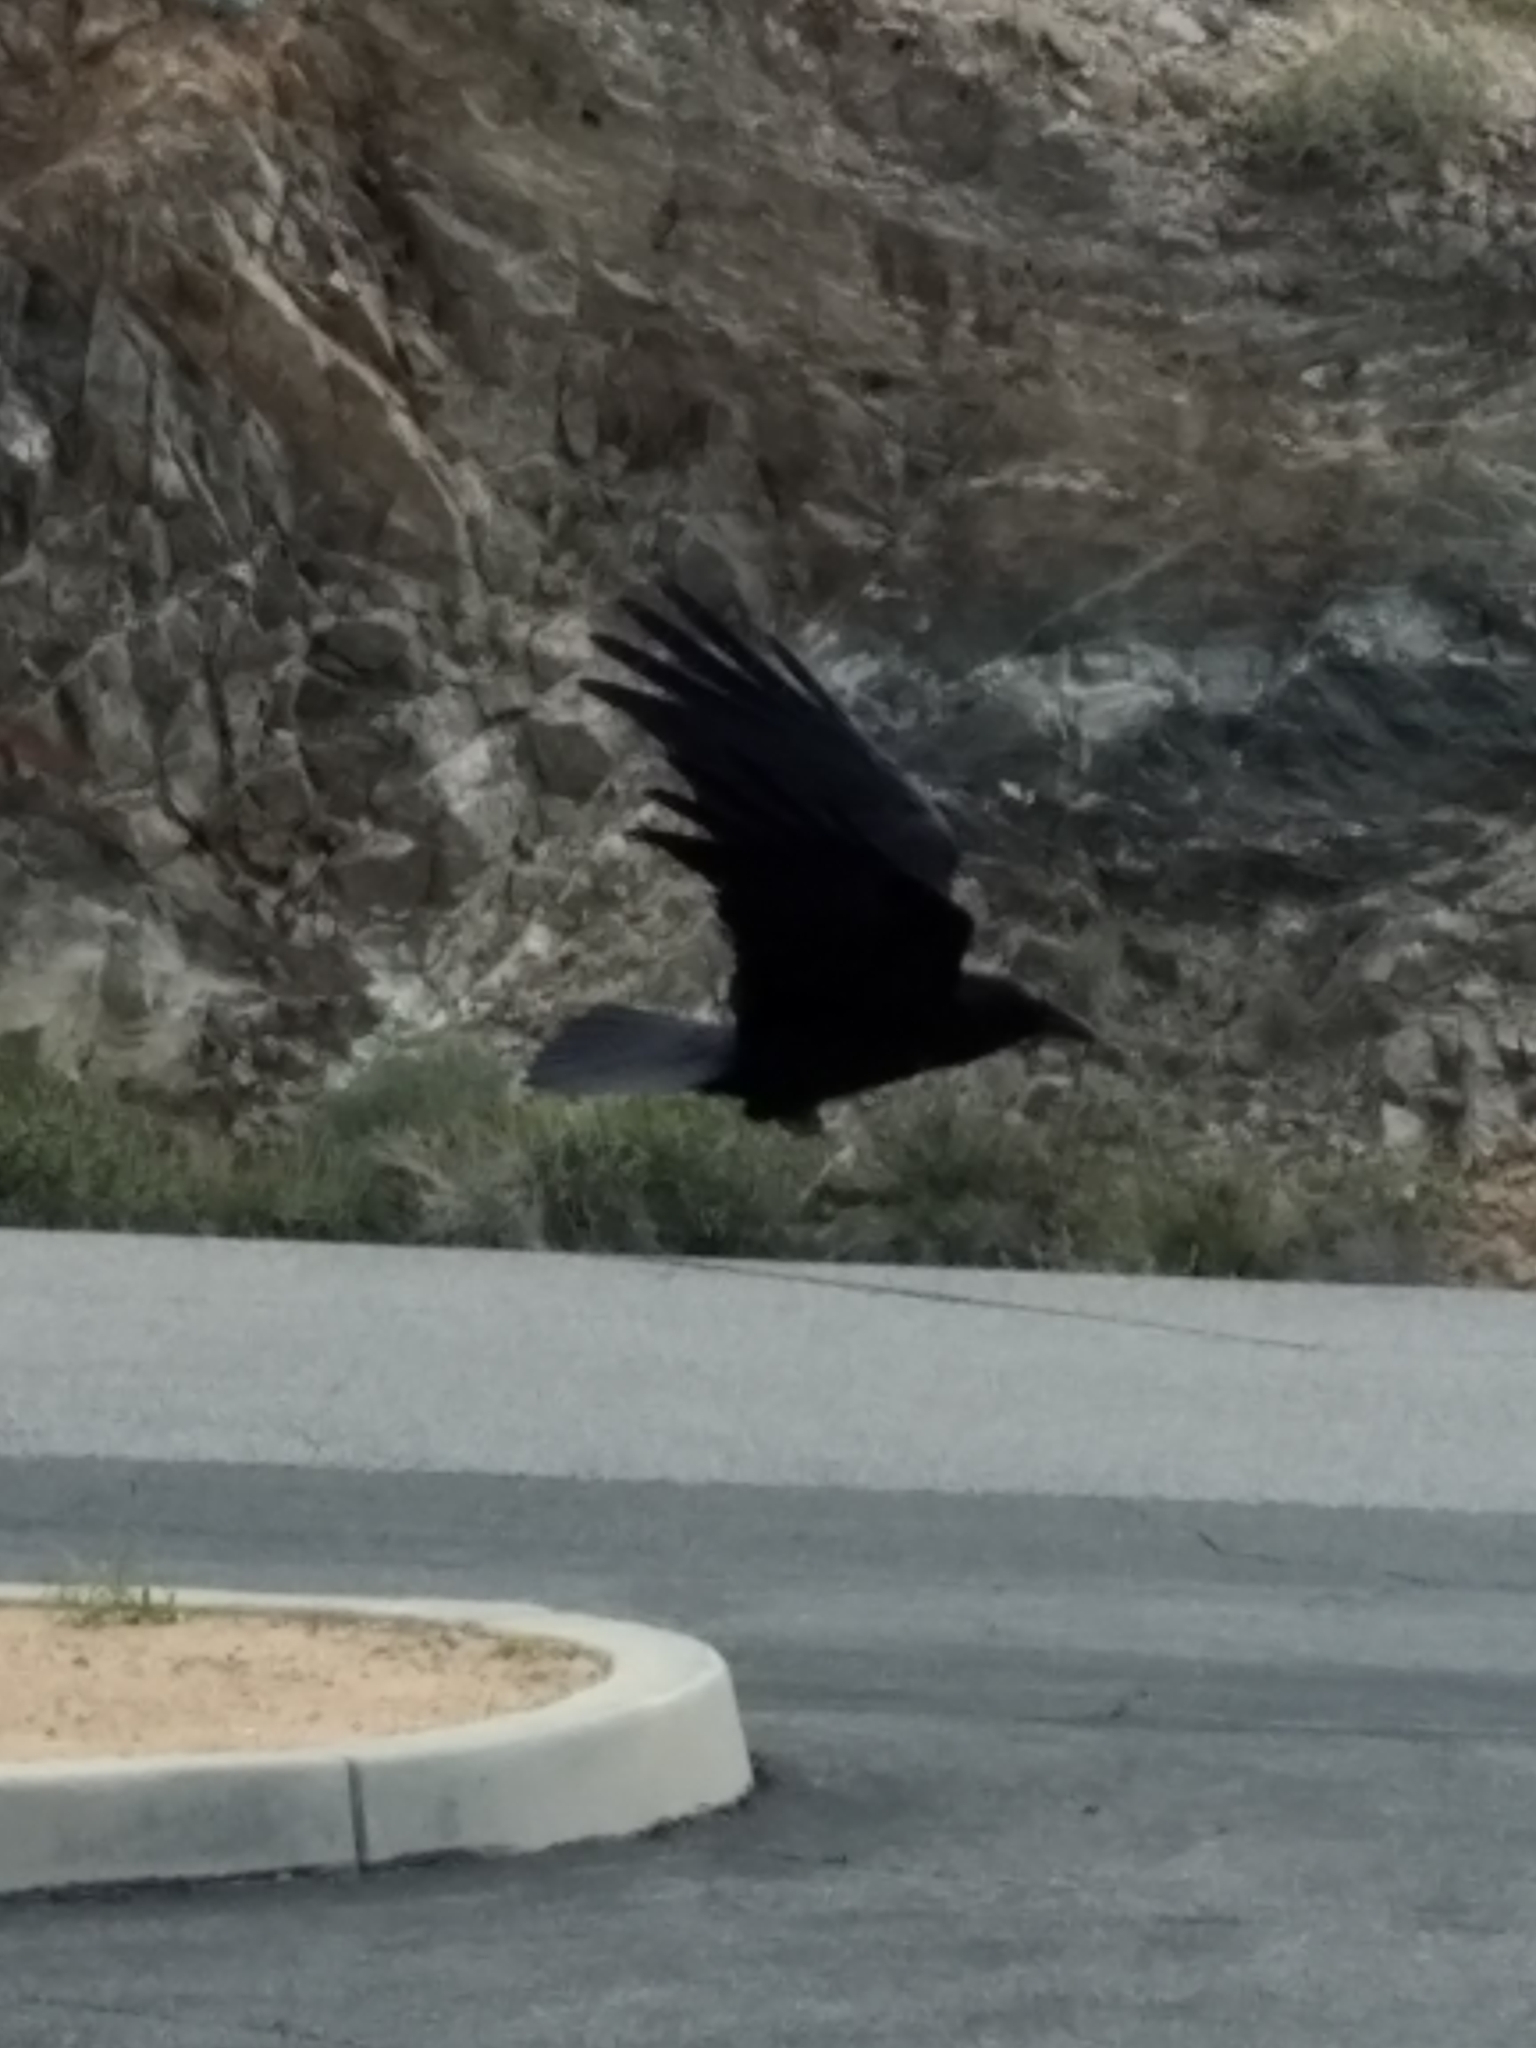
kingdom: Animalia
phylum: Chordata
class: Aves
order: Passeriformes
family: Corvidae
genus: Corvus
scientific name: Corvus corax
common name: Common raven
